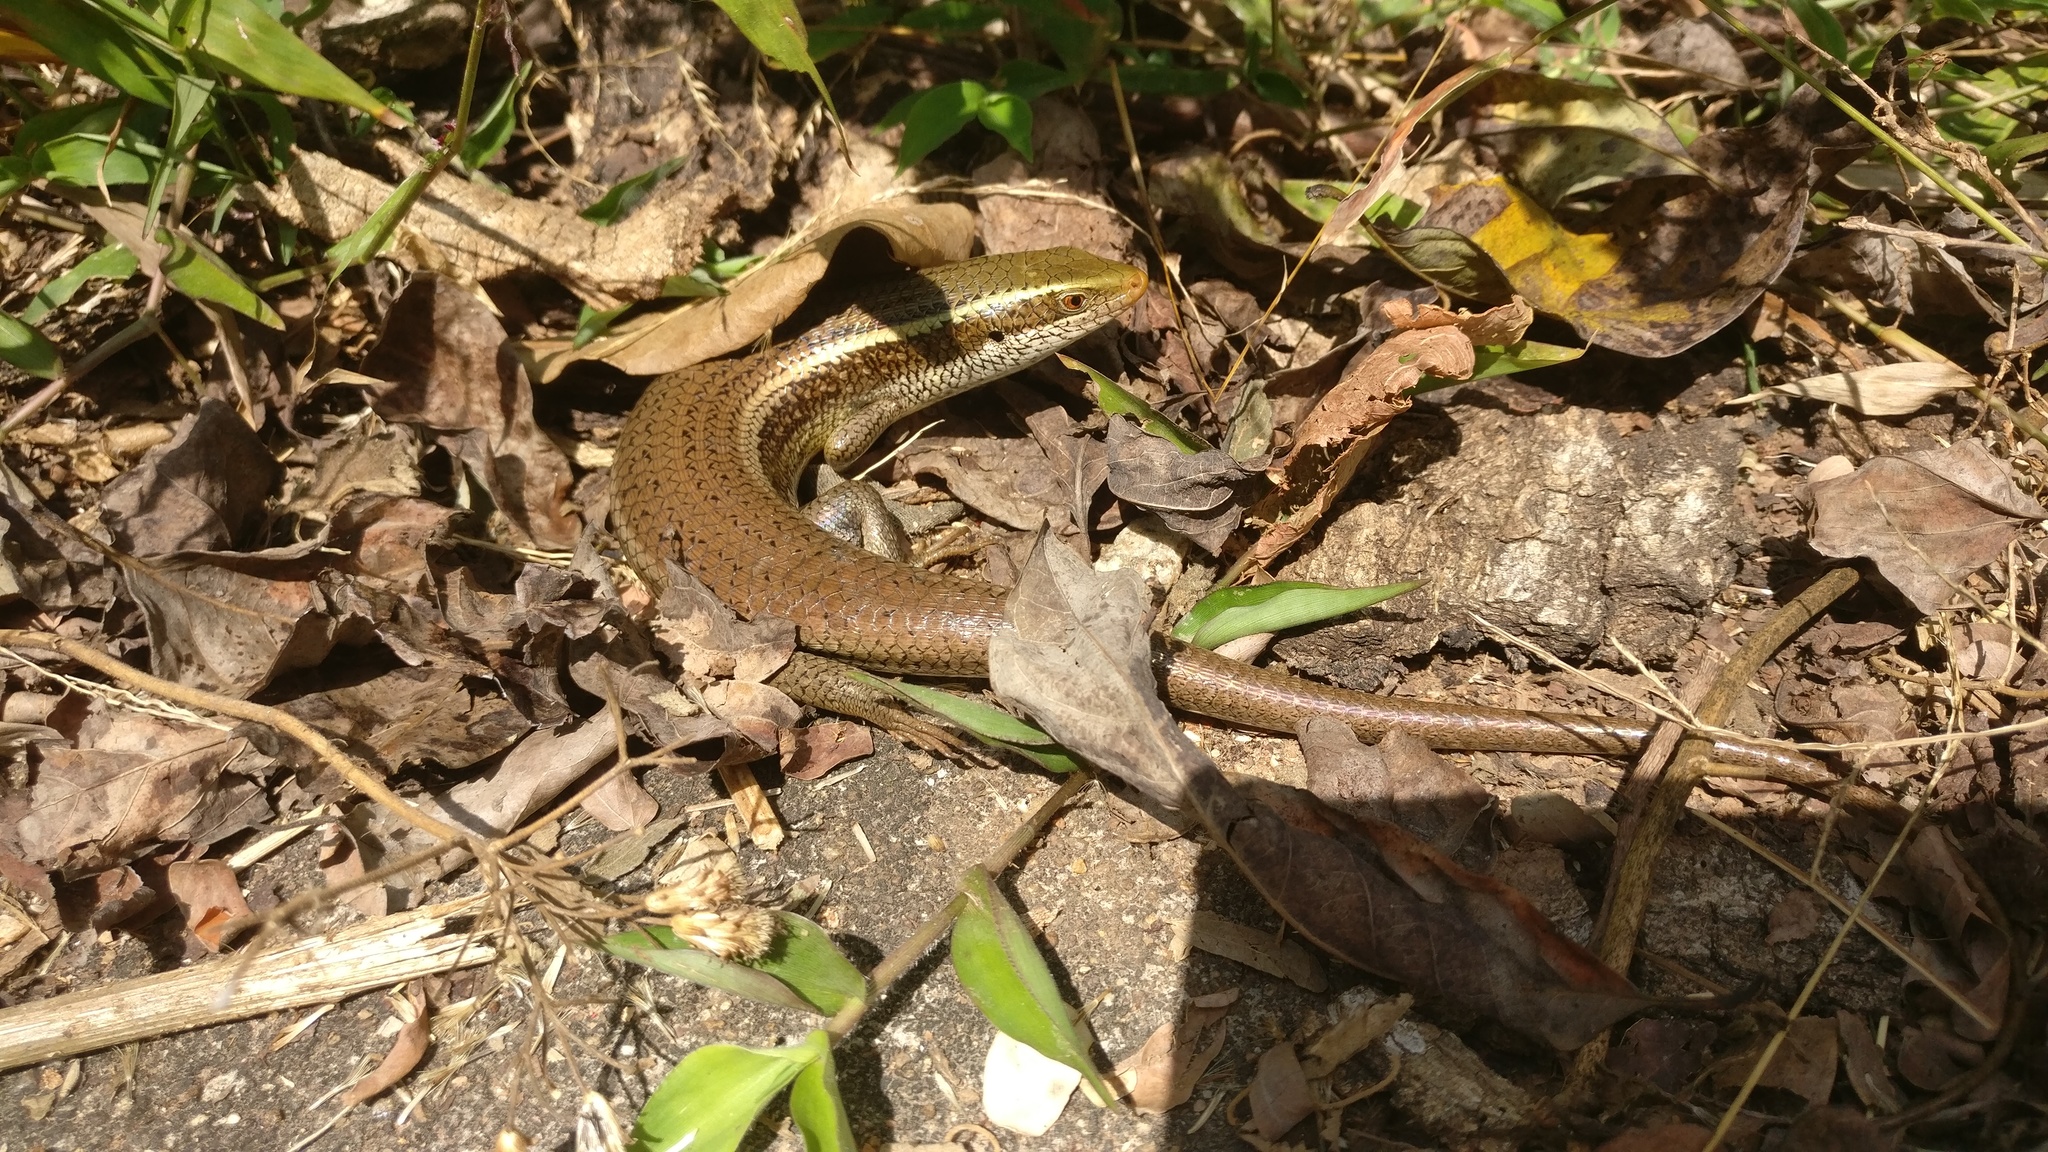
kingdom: Animalia
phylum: Chordata
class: Squamata
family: Scincidae
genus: Eutropis
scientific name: Eutropis carinata
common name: Keeled indian mabuya
